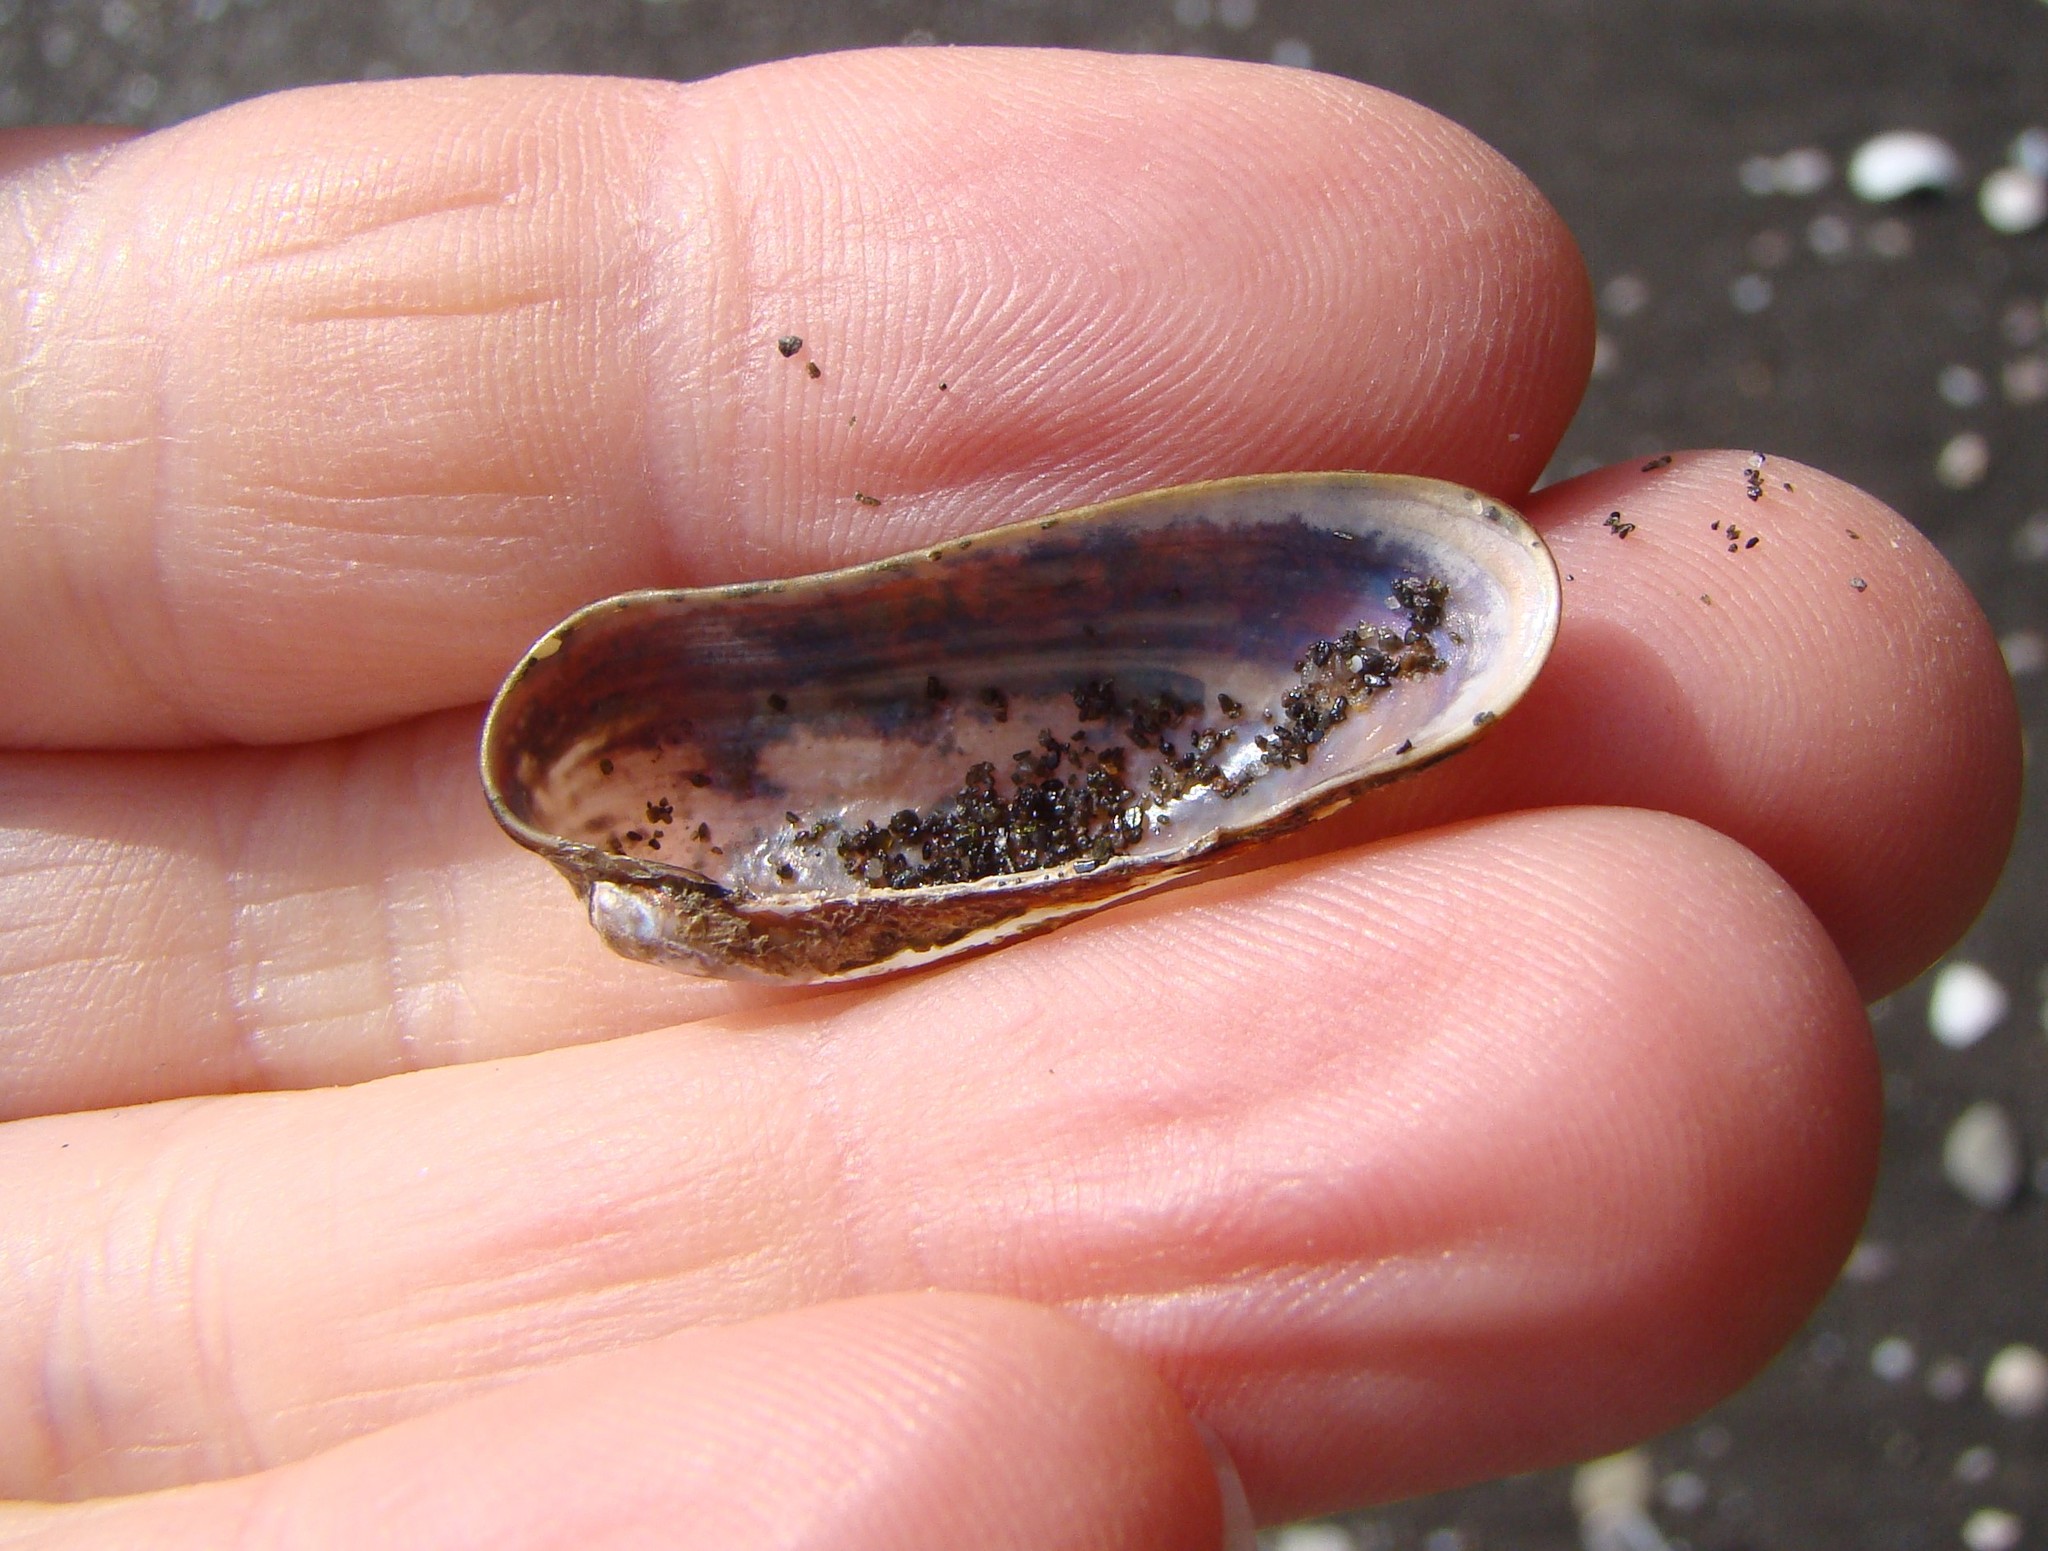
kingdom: Animalia
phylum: Mollusca
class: Bivalvia
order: Mytilida
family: Mytilidae
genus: Zelithophaga
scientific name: Zelithophaga truncata
